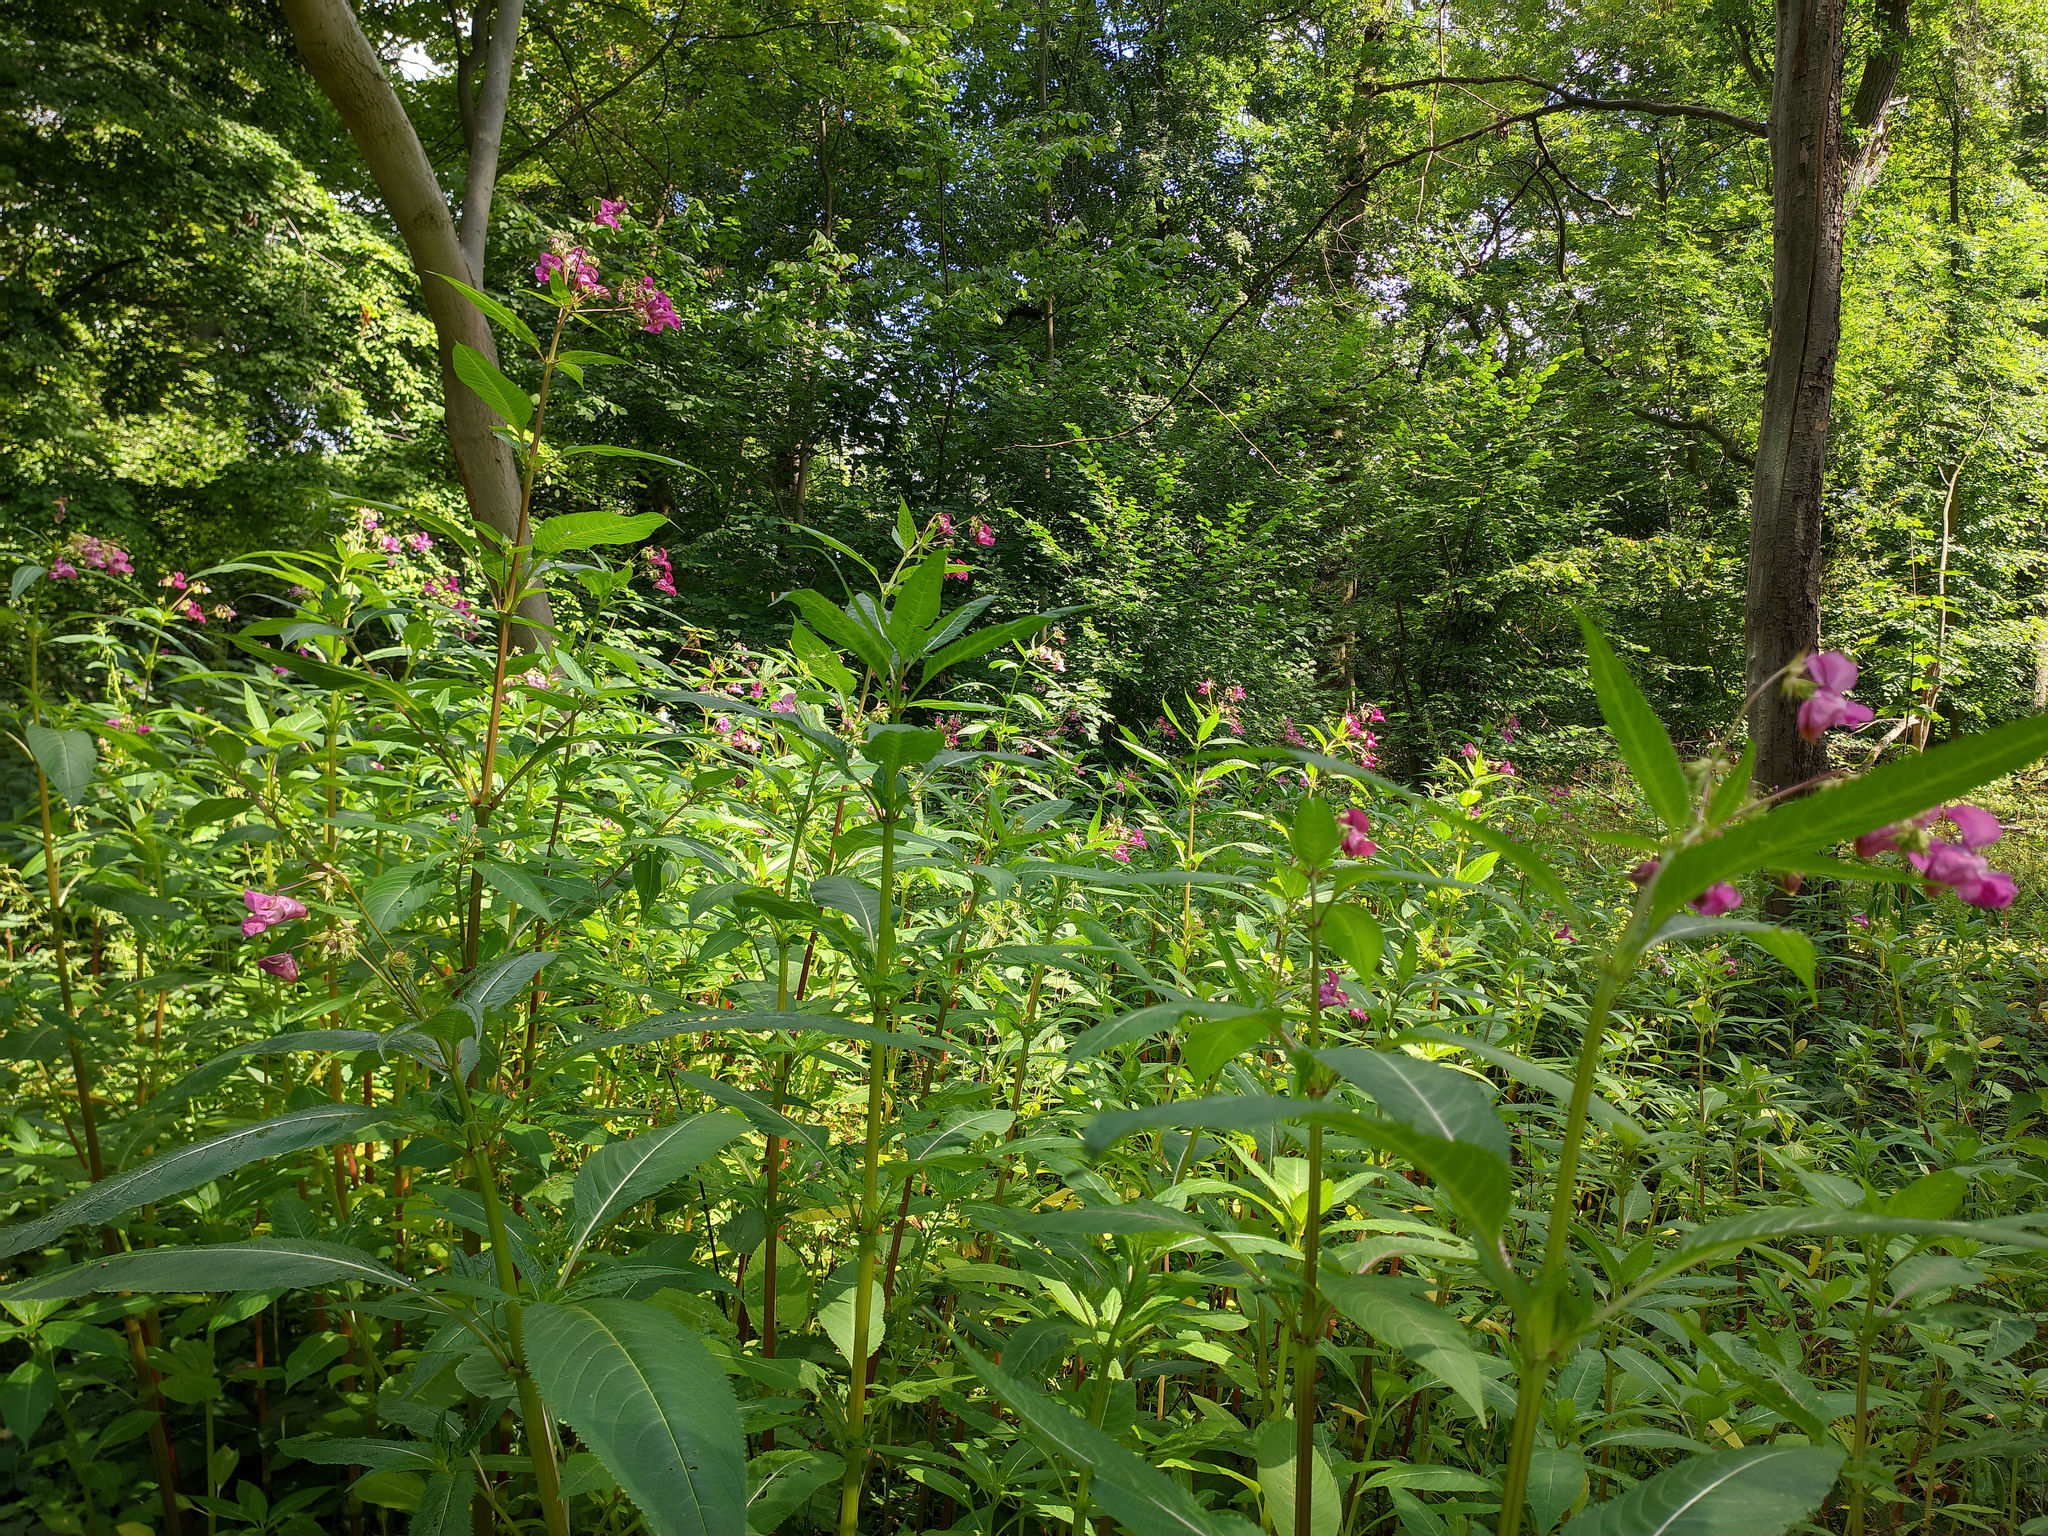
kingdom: Plantae
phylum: Tracheophyta
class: Magnoliopsida
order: Ericales
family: Balsaminaceae
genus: Impatiens
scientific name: Impatiens glandulifera
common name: Himalayan balsam
